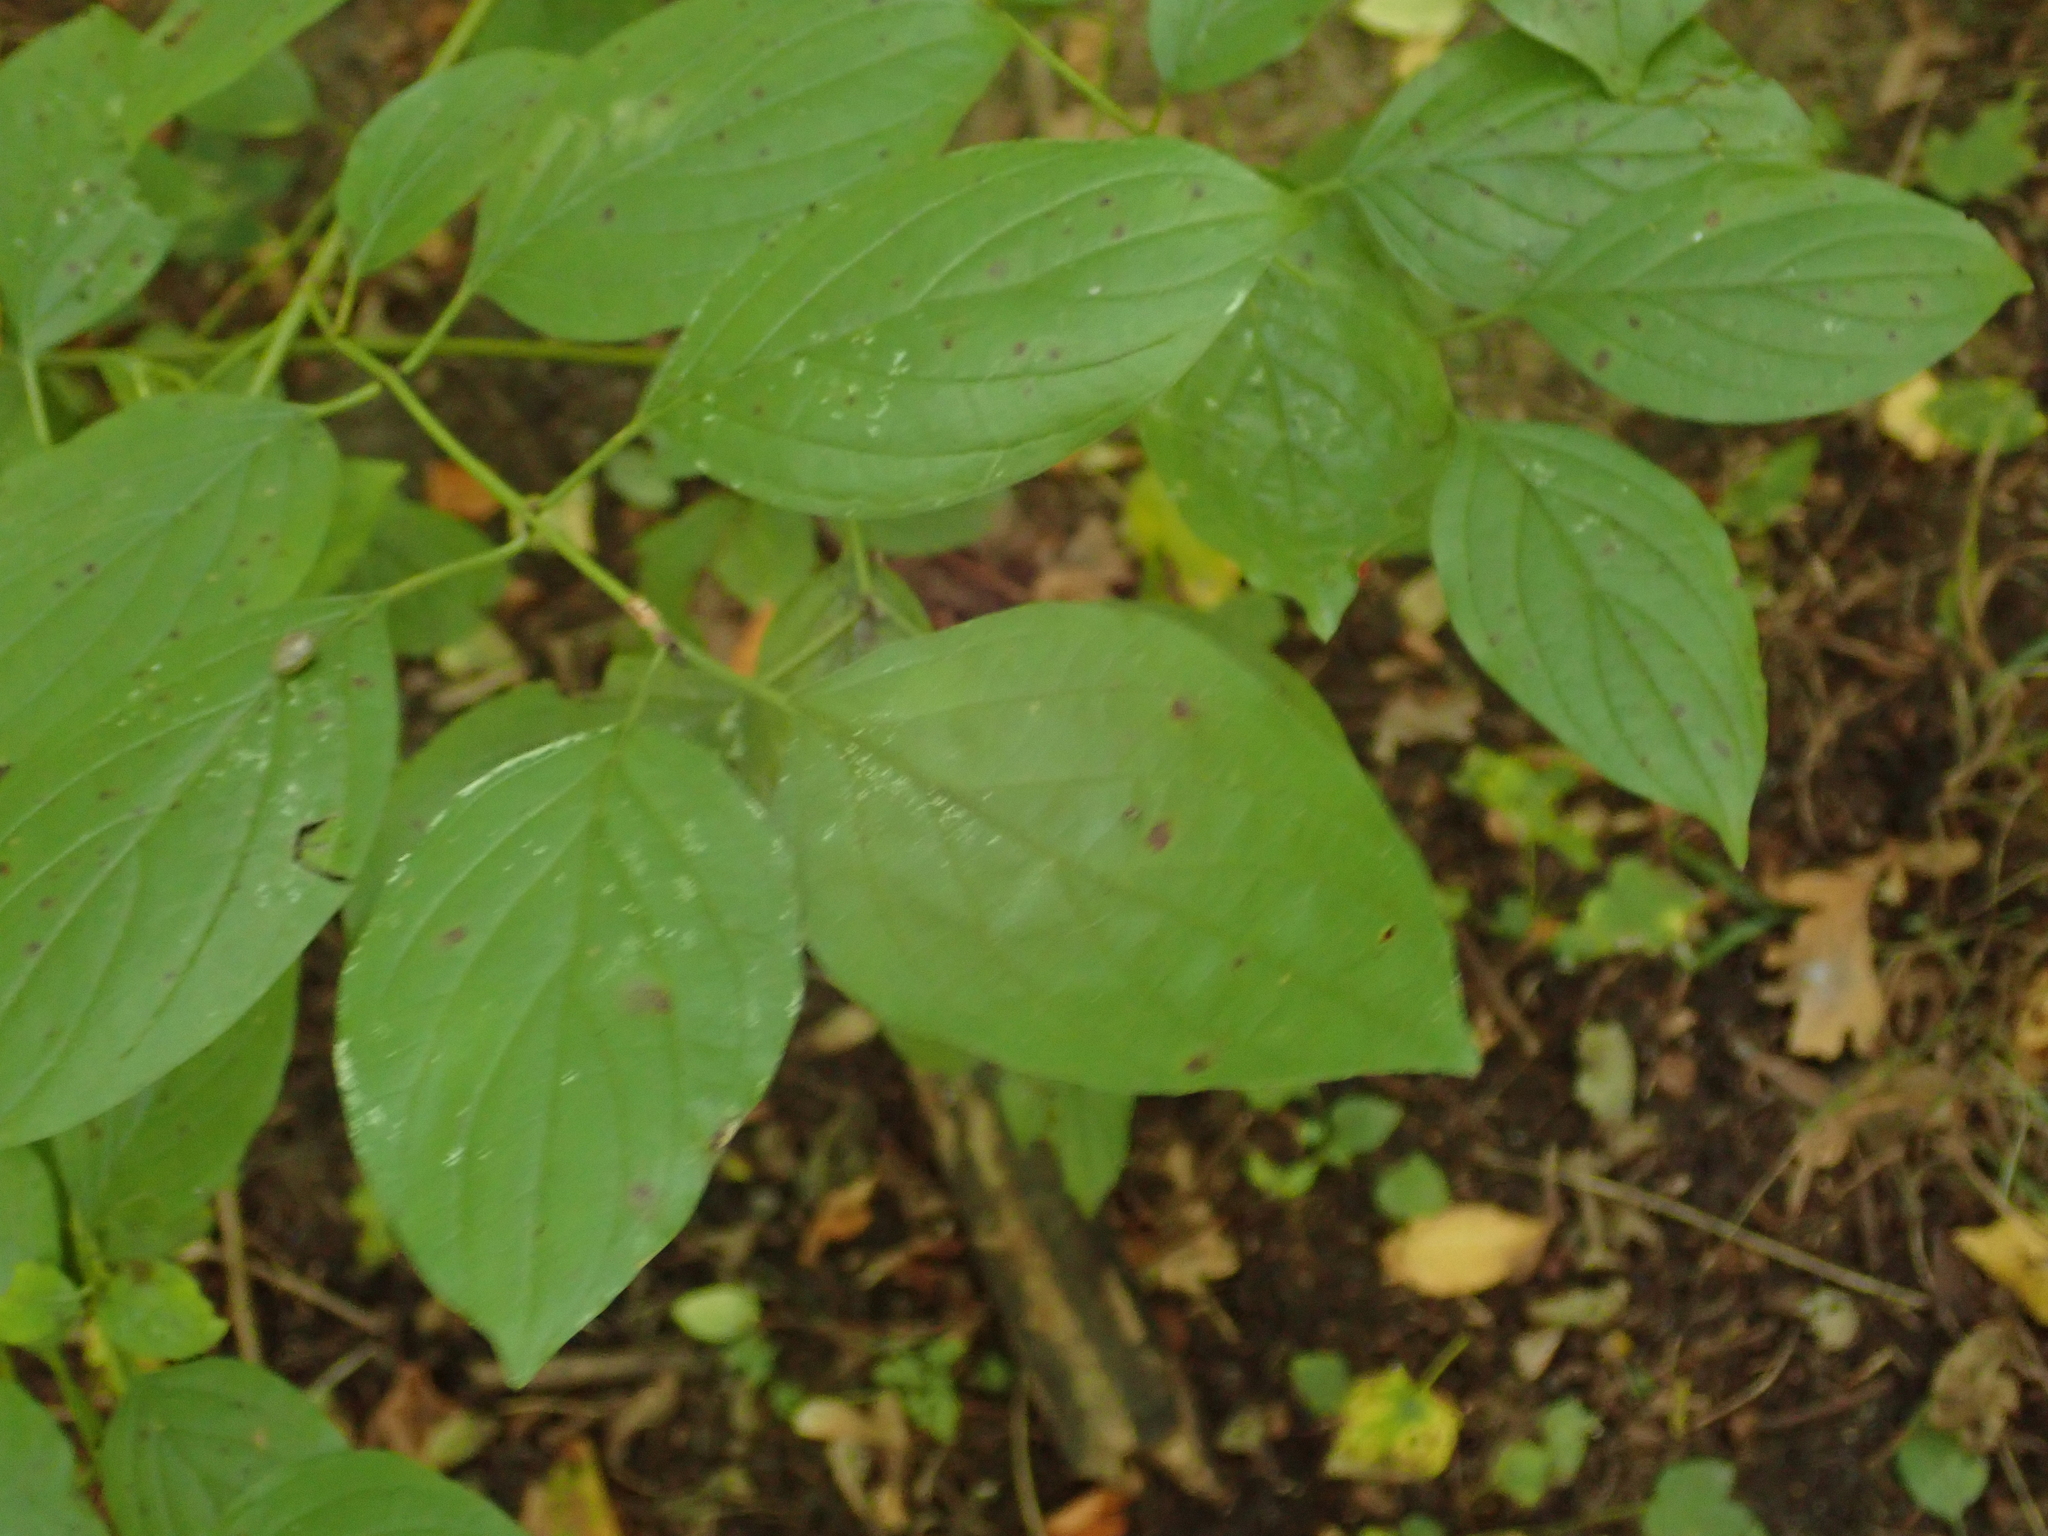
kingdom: Plantae
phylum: Tracheophyta
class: Magnoliopsida
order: Cornales
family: Cornaceae
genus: Cornus
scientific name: Cornus sanguinea
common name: Dogwood
